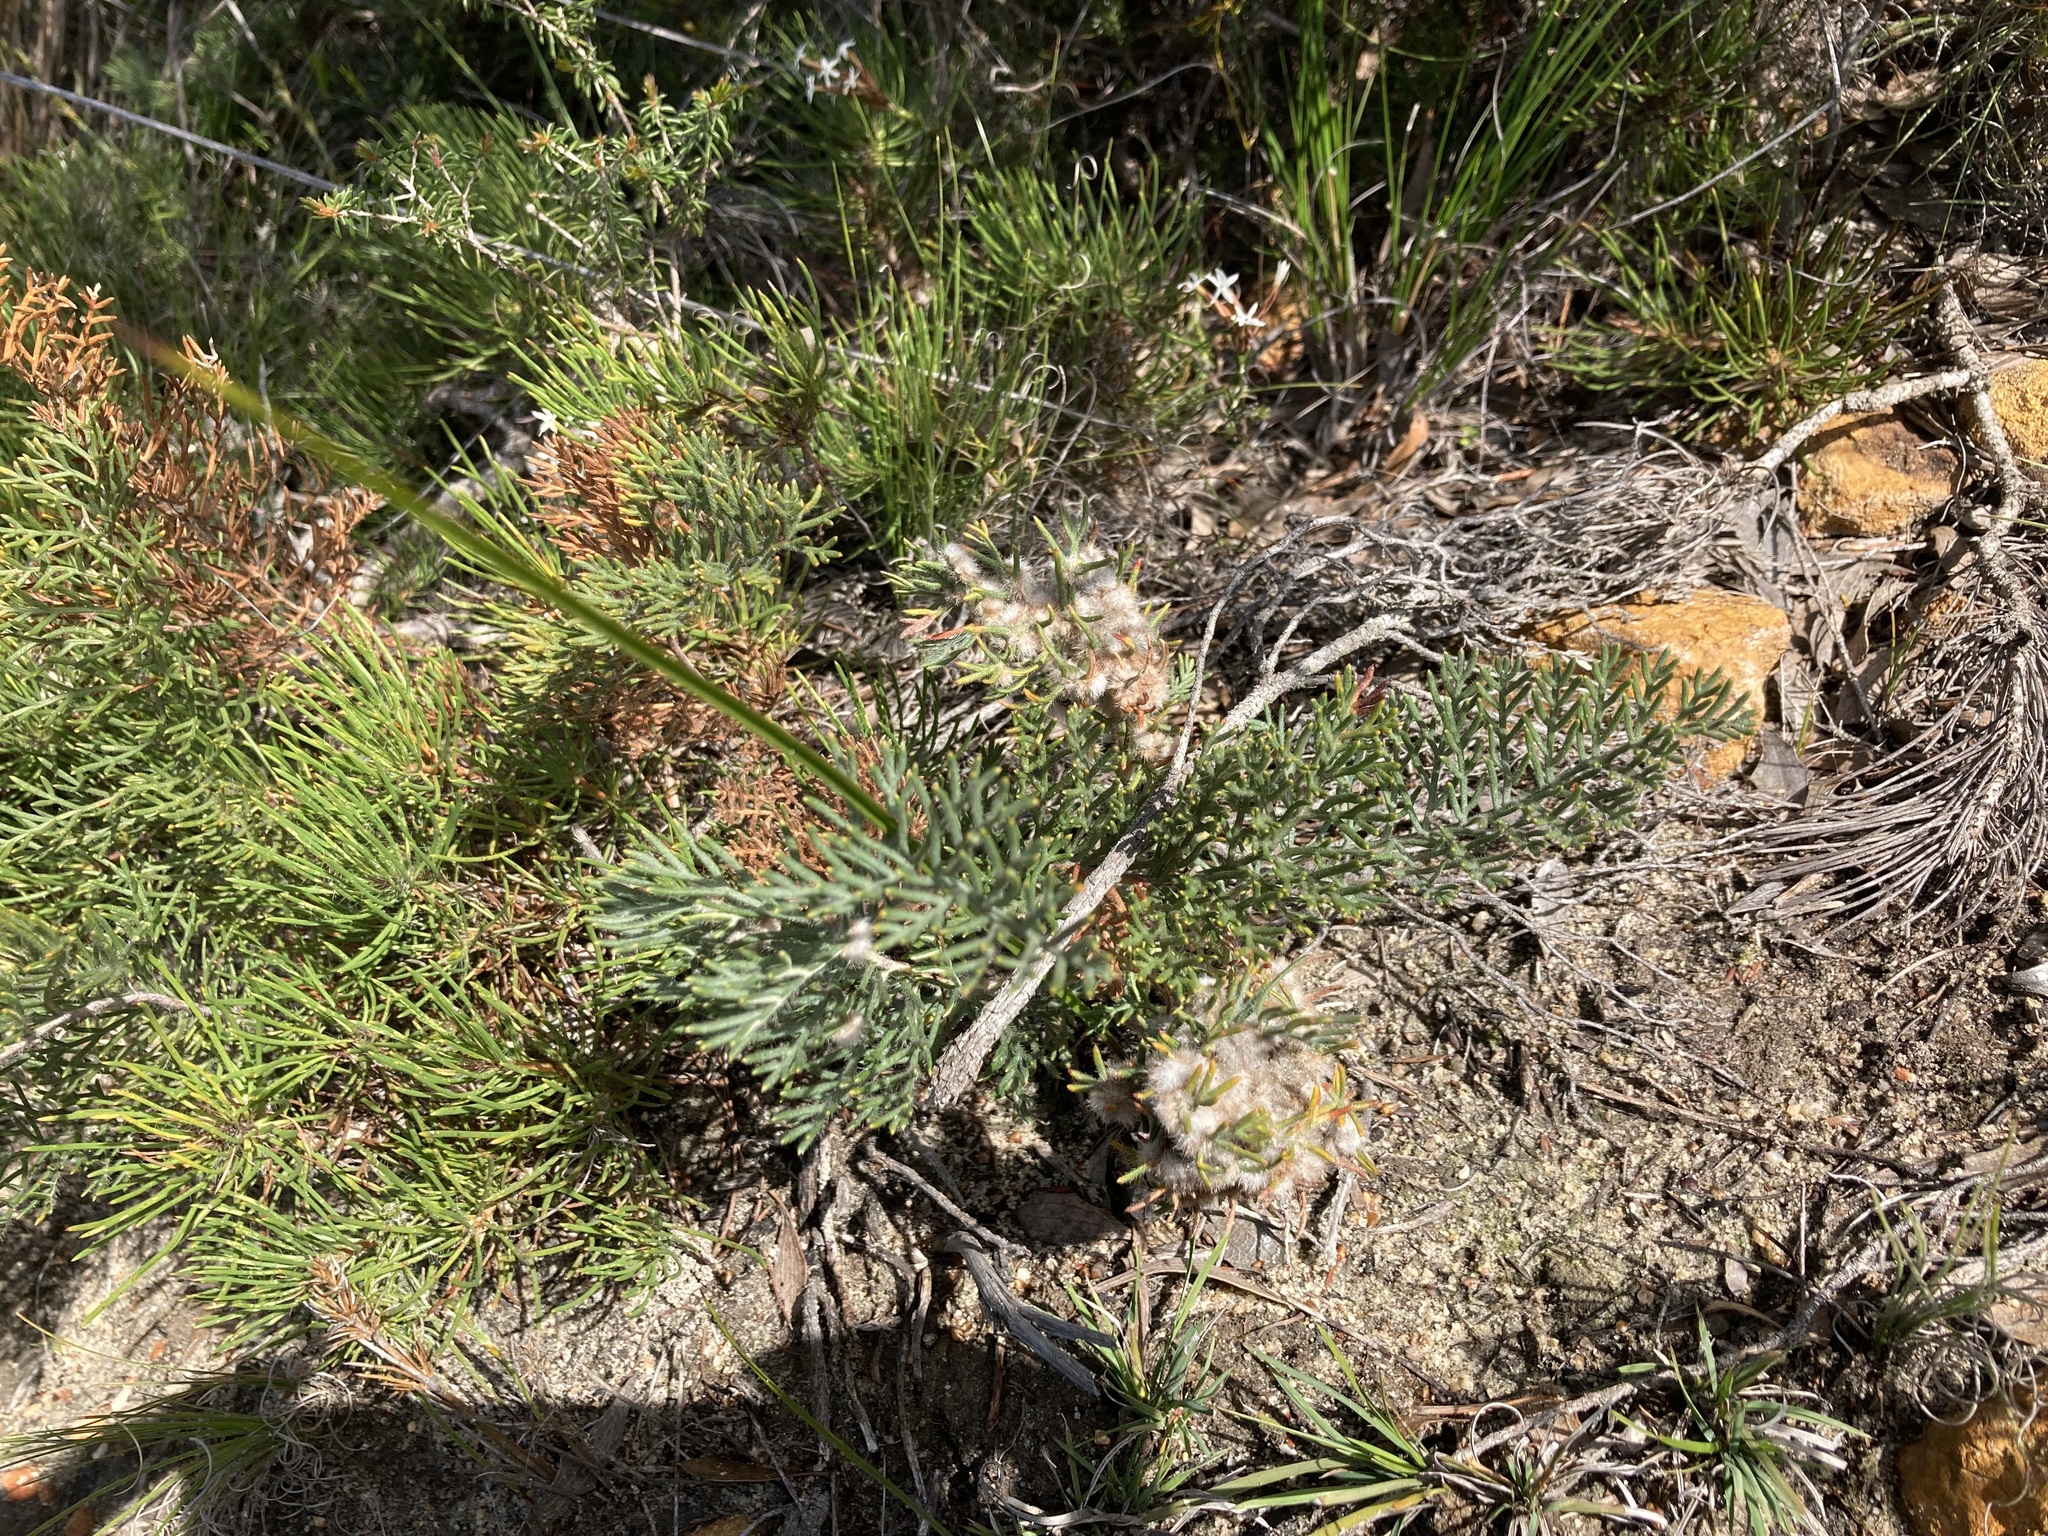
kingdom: Plantae
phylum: Tracheophyta
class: Magnoliopsida
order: Proteales
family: Proteaceae
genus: Banksia
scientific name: Banksia bipinnatifida
